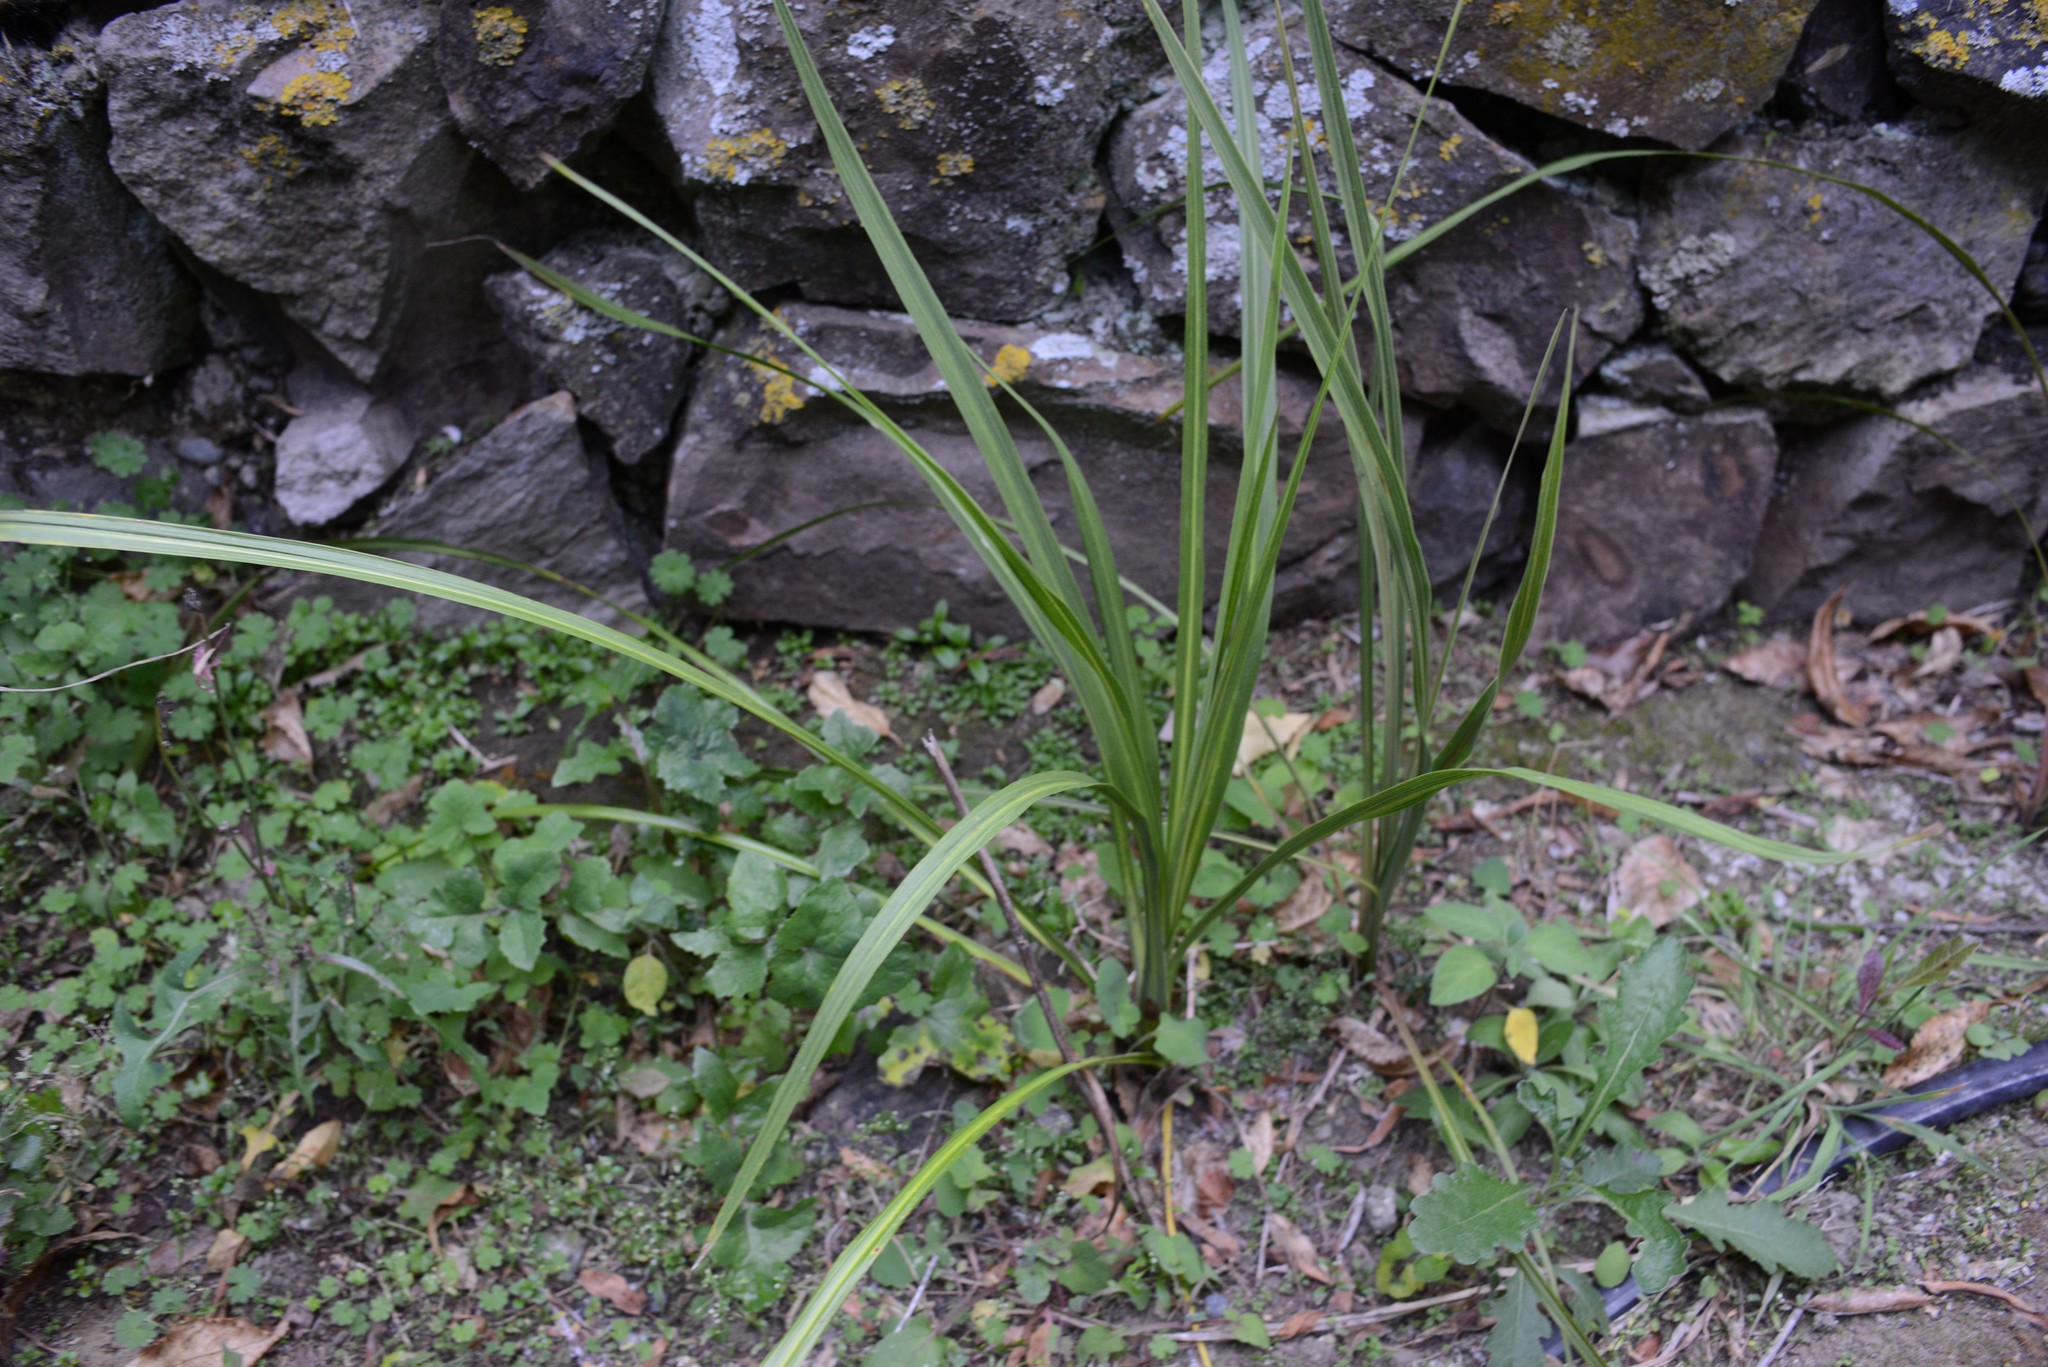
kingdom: Plantae
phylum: Tracheophyta
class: Liliopsida
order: Asparagales
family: Asparagaceae
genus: Cordyline
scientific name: Cordyline australis
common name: Cabbage-palm
